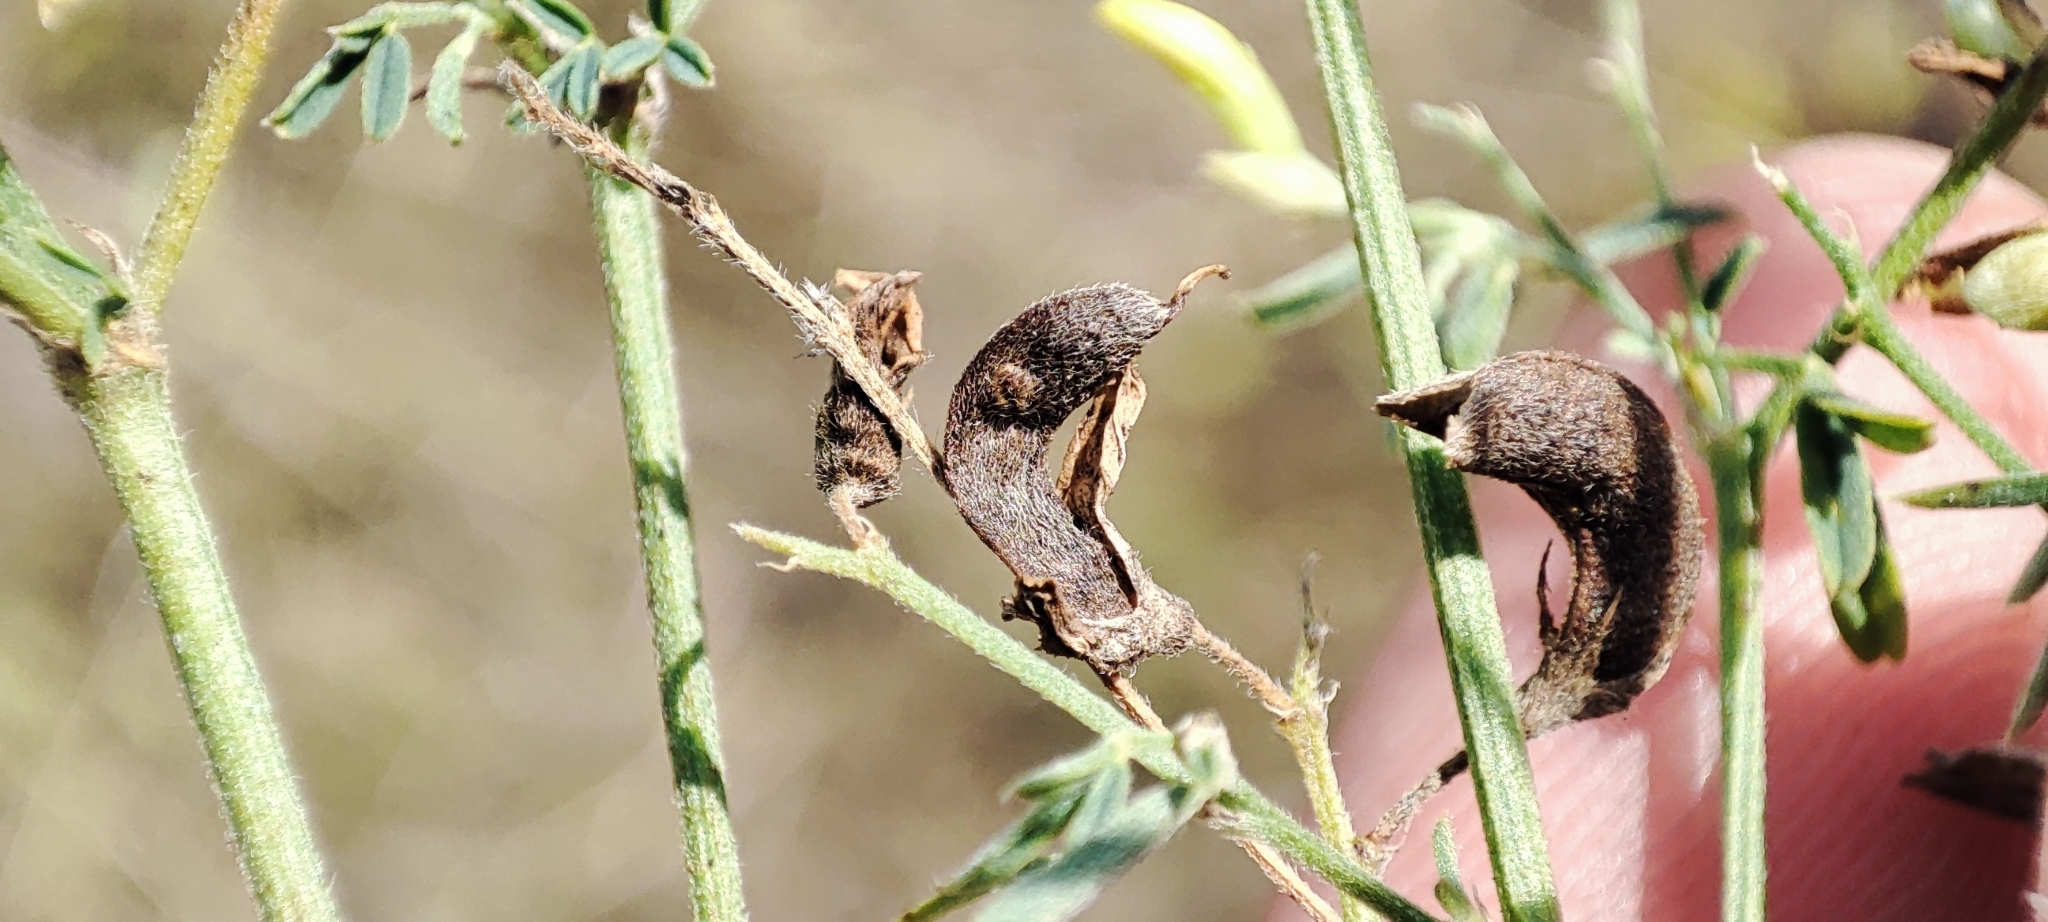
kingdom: Plantae
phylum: Tracheophyta
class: Magnoliopsida
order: Fabales
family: Fabaceae
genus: Medicago
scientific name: Medicago falcata
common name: Sickle medick
